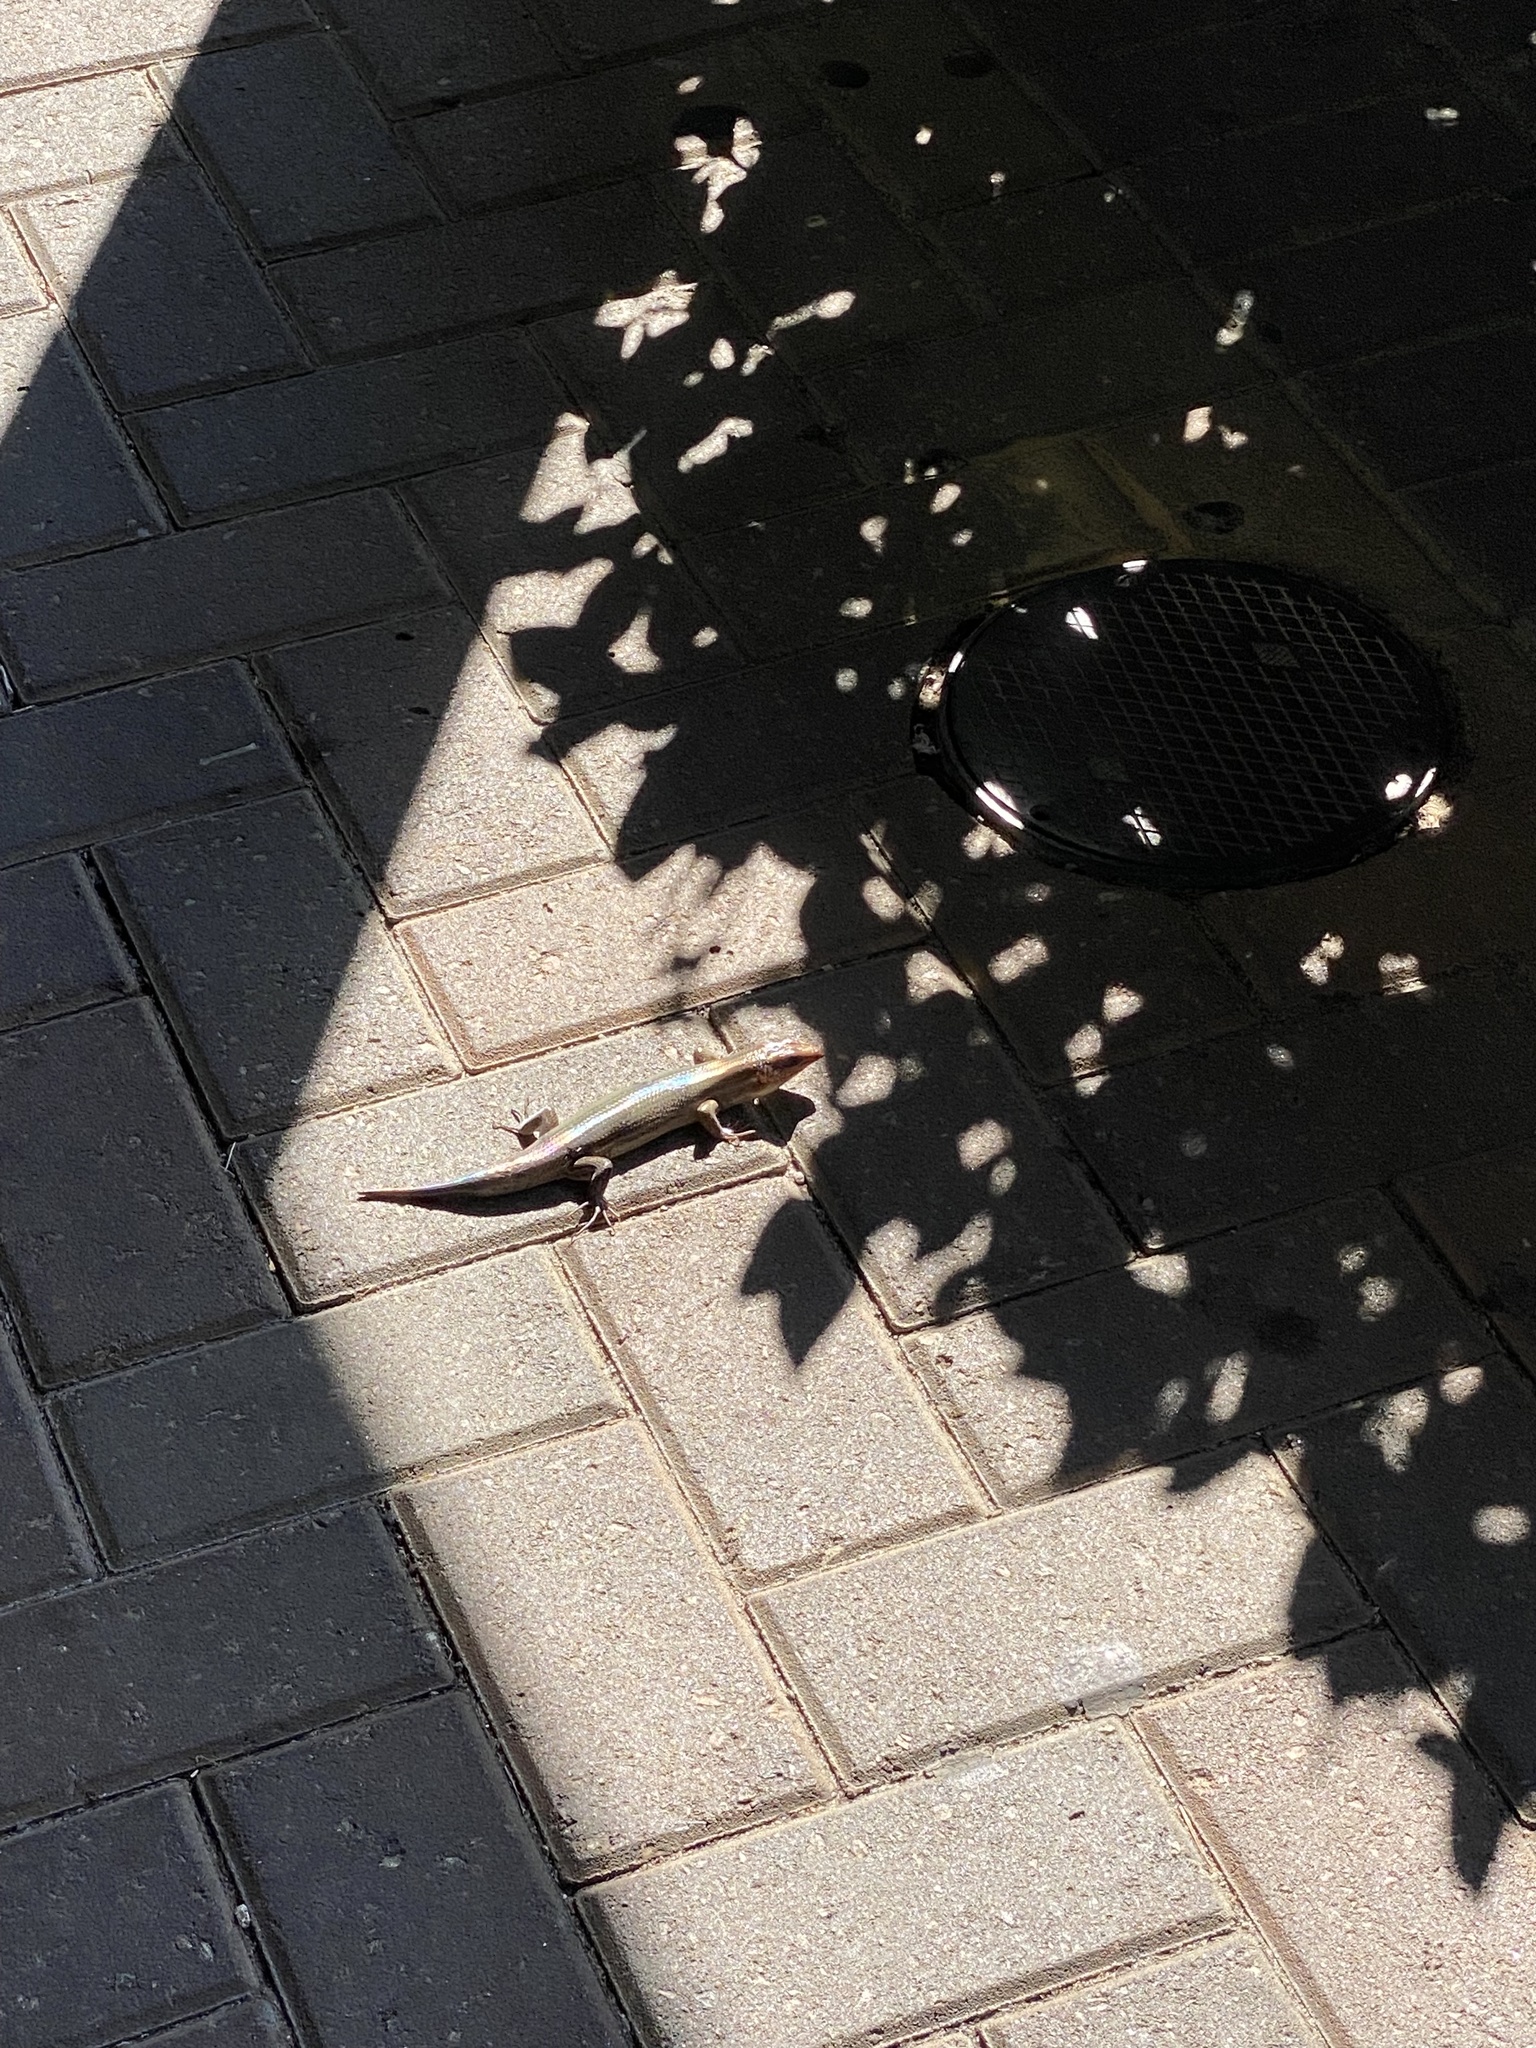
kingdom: Animalia
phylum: Chordata
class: Squamata
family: Scincidae
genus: Plestiodon
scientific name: Plestiodon laticeps
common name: Broadhead skink
